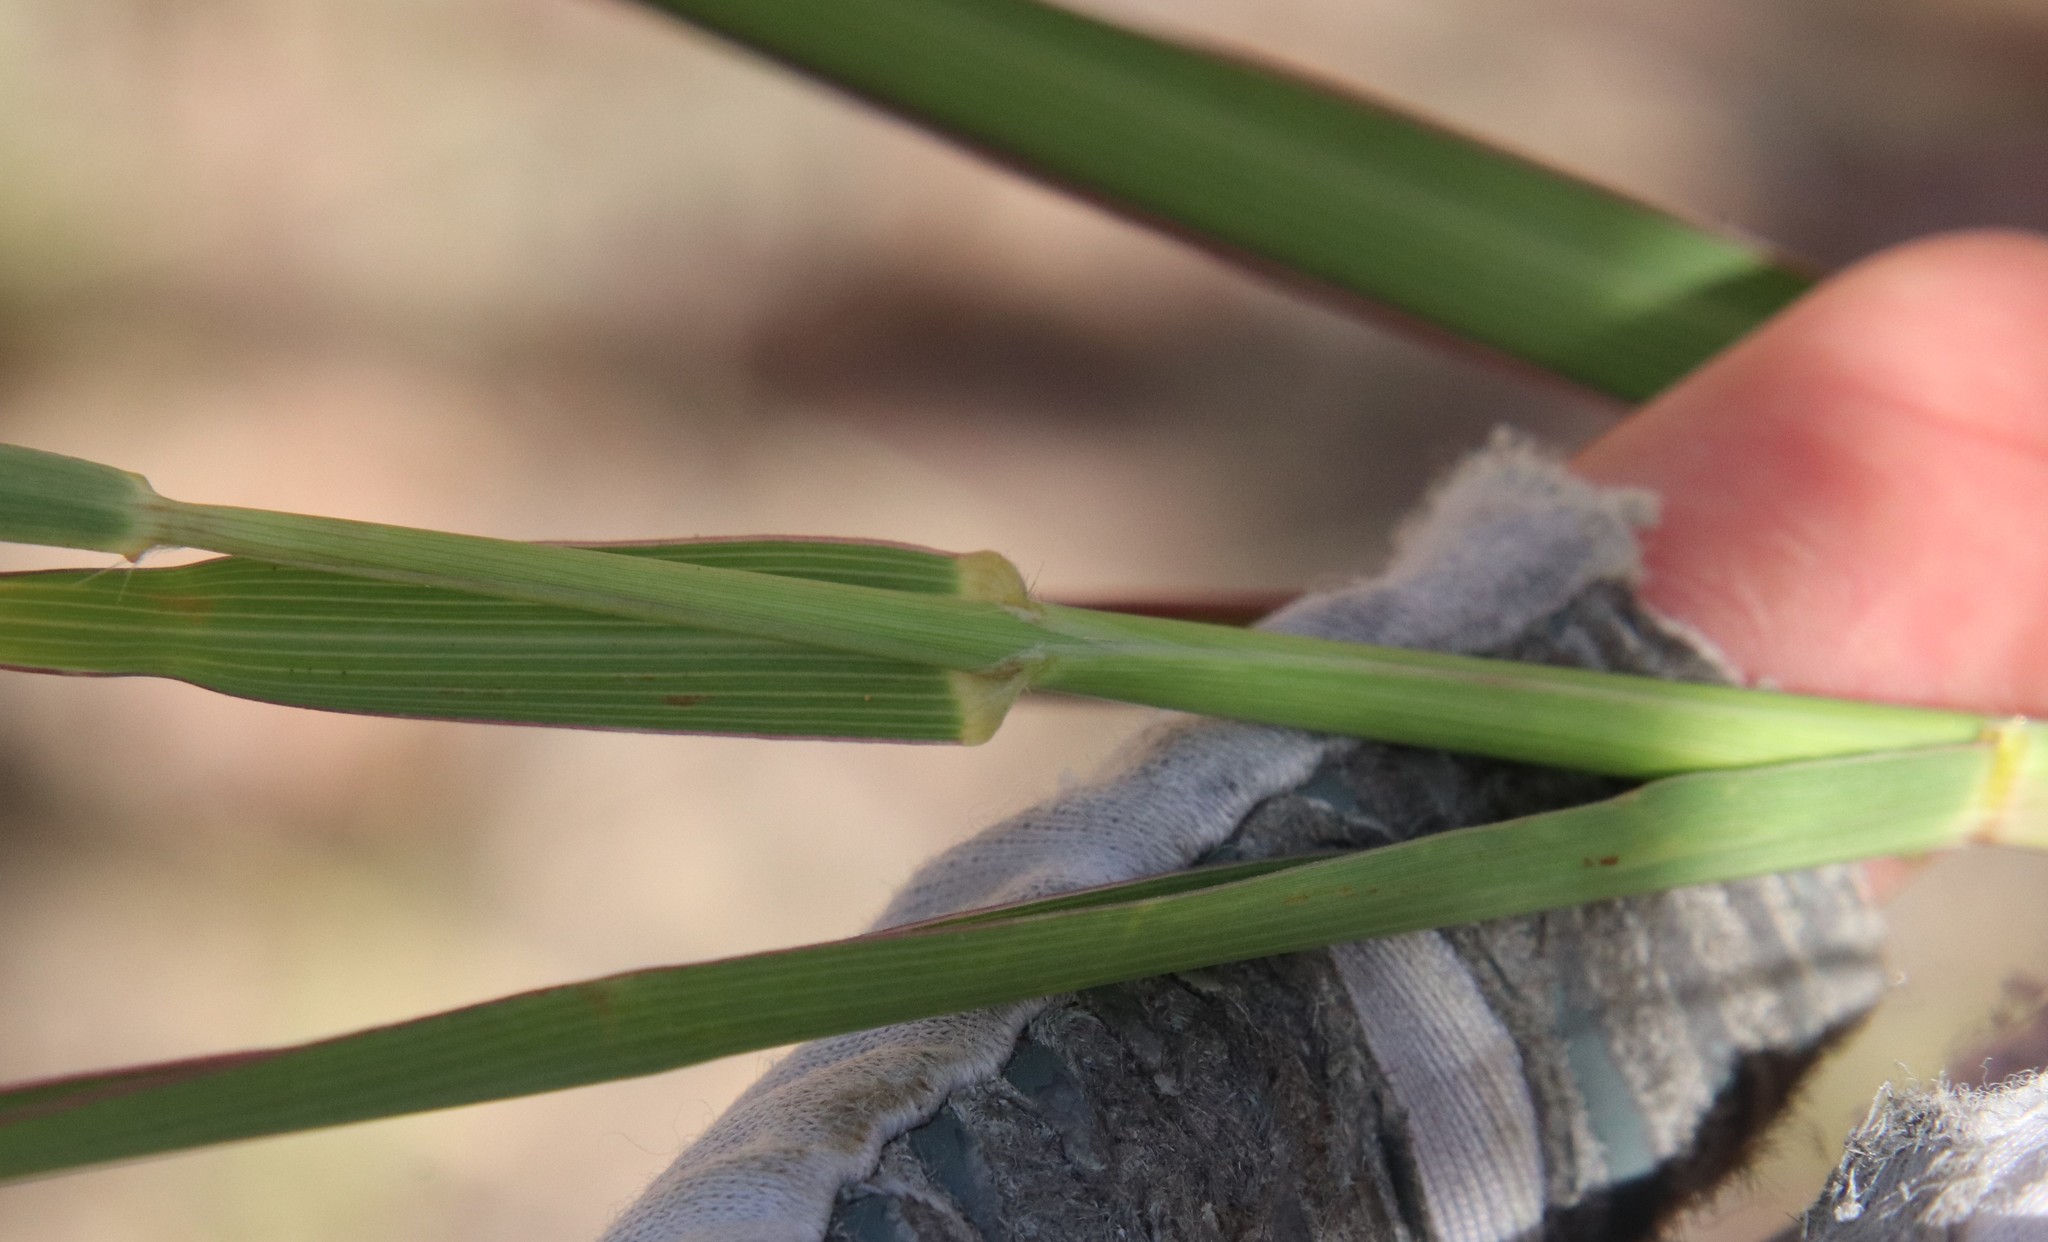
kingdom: Plantae
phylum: Tracheophyta
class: Liliopsida
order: Poales
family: Poaceae
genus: Bothriochloa
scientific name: Bothriochloa barbinodis
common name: Cane bluestem
